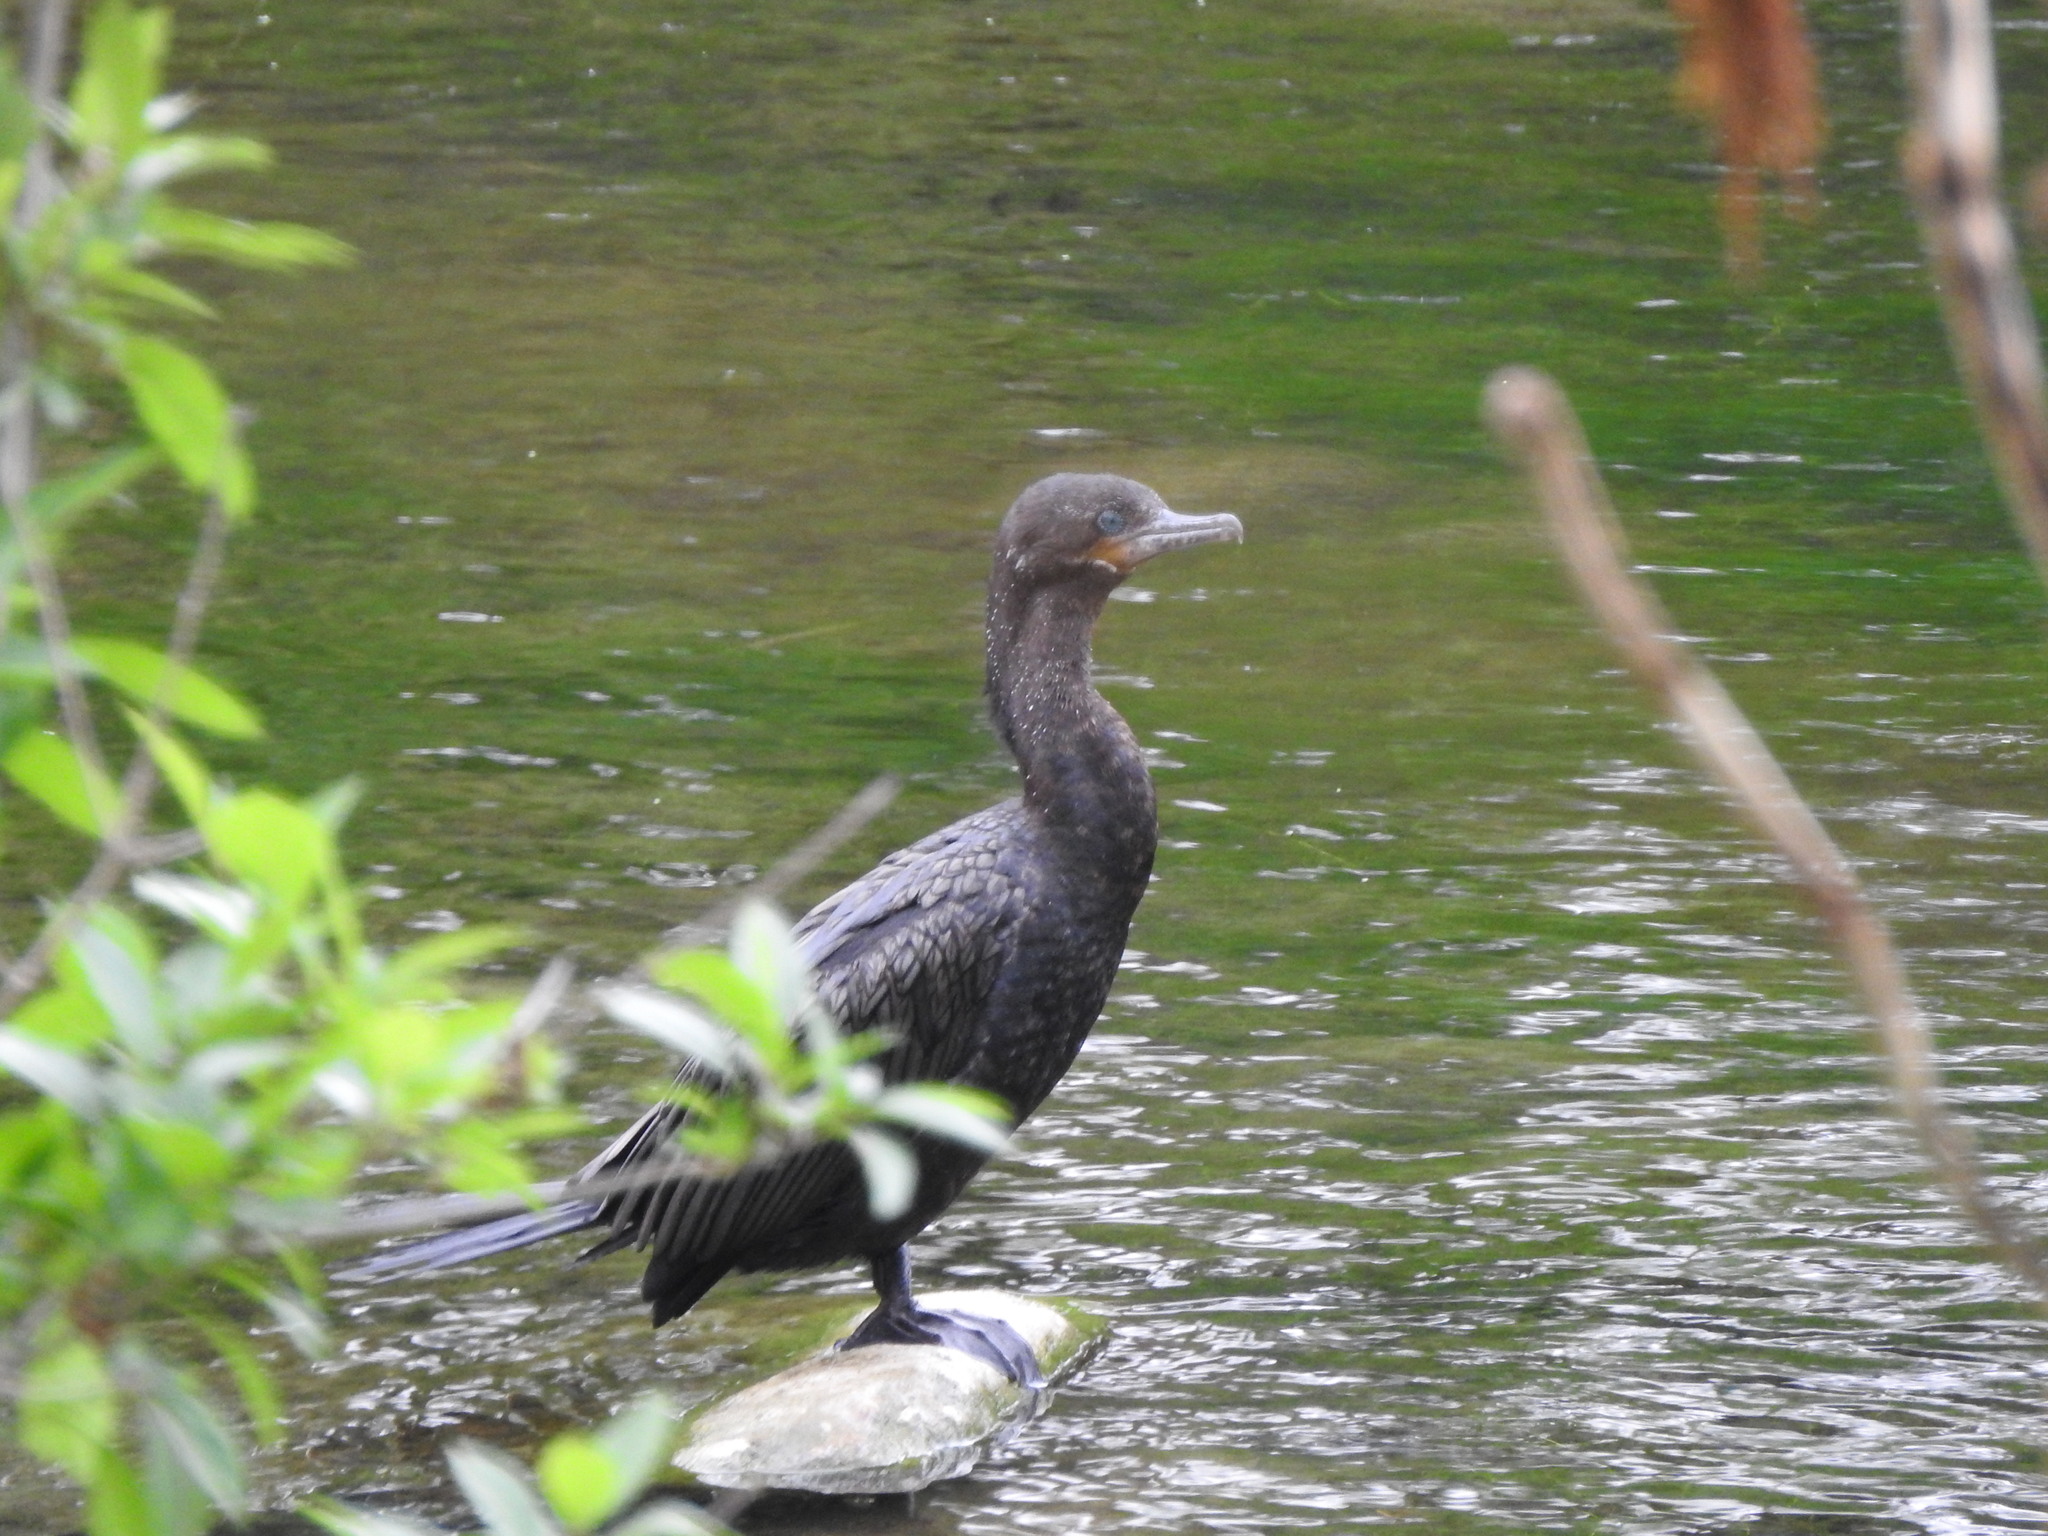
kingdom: Animalia
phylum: Chordata
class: Aves
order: Suliformes
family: Phalacrocoracidae
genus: Phalacrocorax
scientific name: Phalacrocorax brasilianus
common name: Neotropic cormorant
